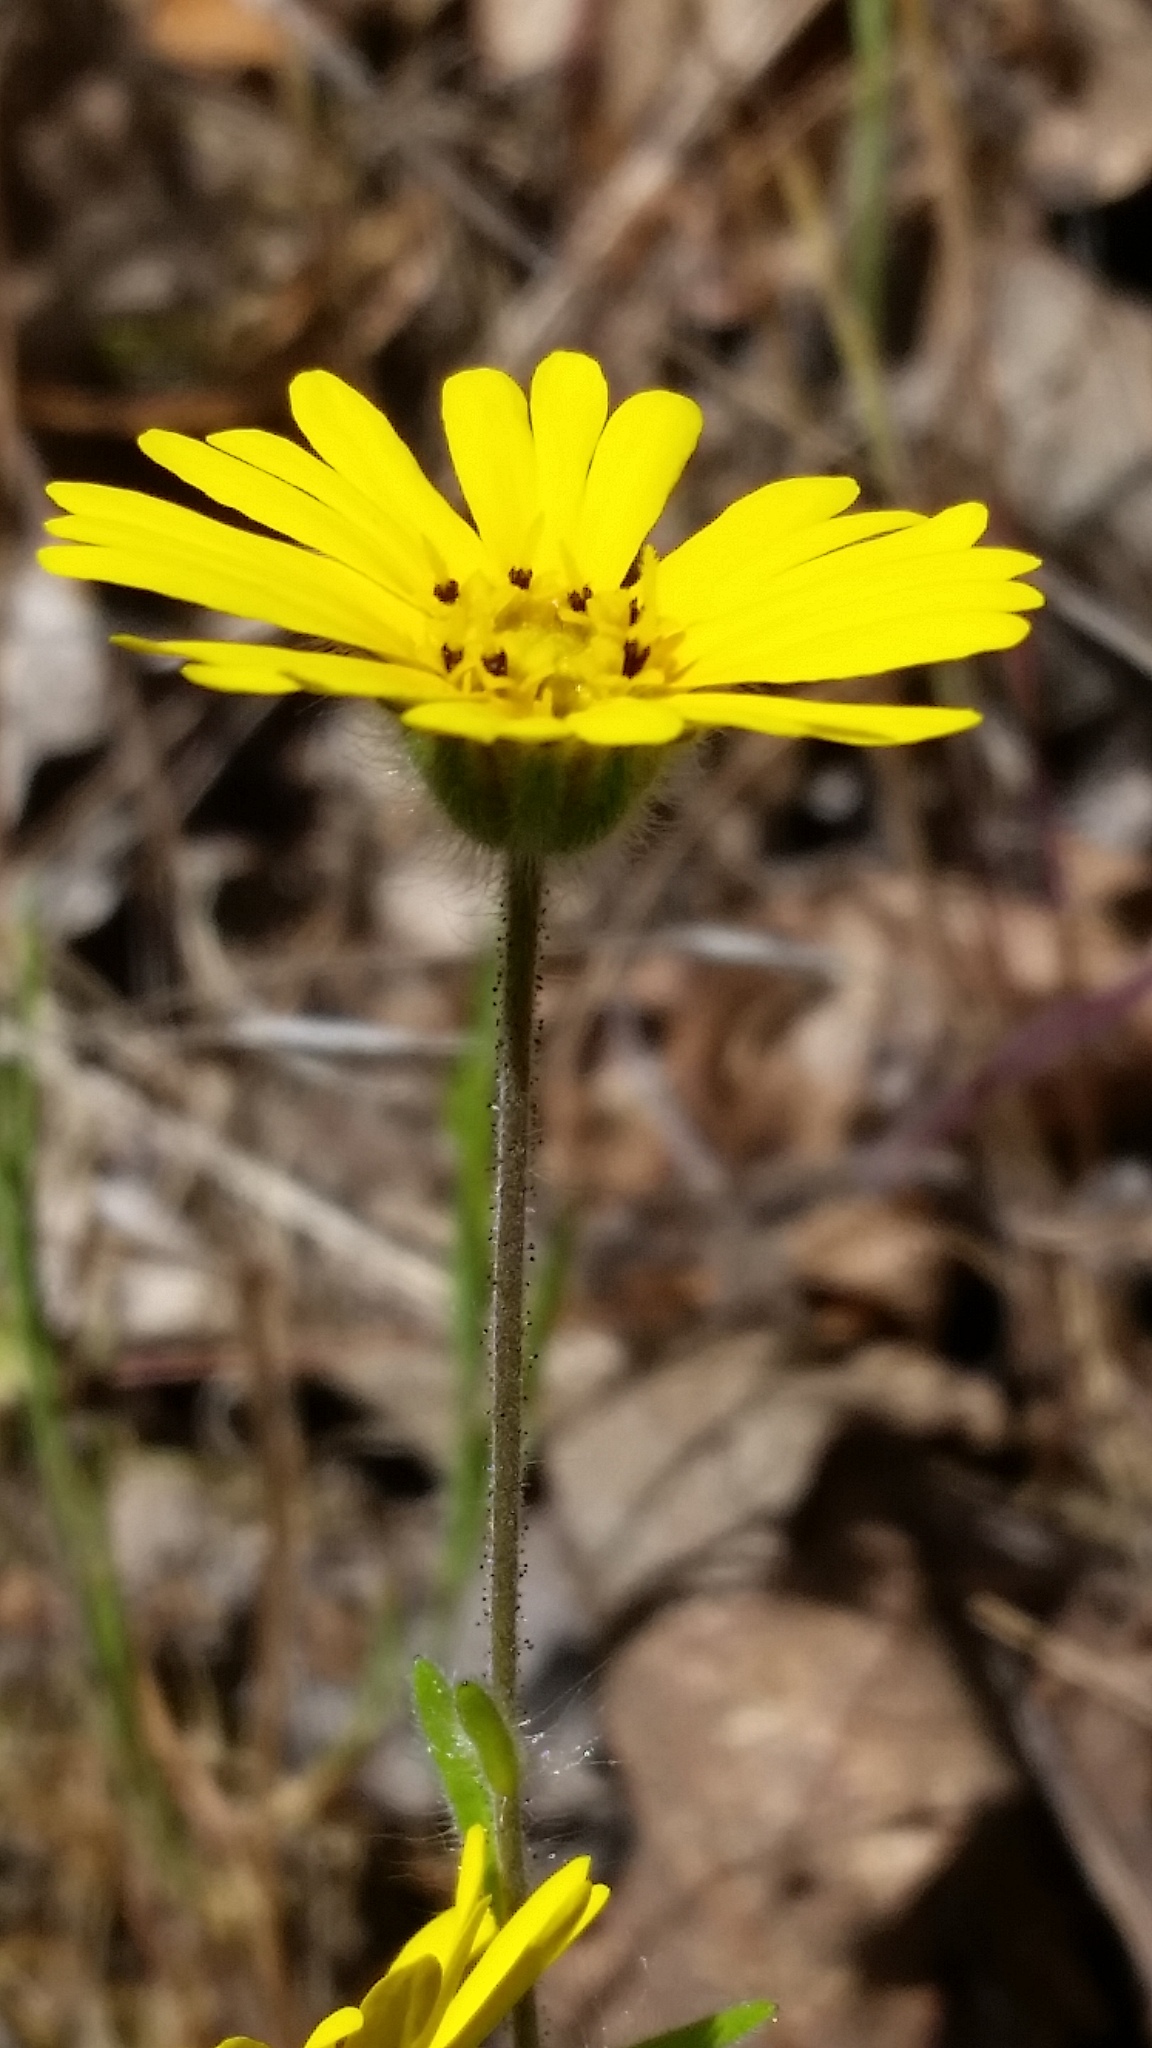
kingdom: Plantae
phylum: Tracheophyta
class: Magnoliopsida
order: Asterales
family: Asteraceae
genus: Madia
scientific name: Madia elegans
